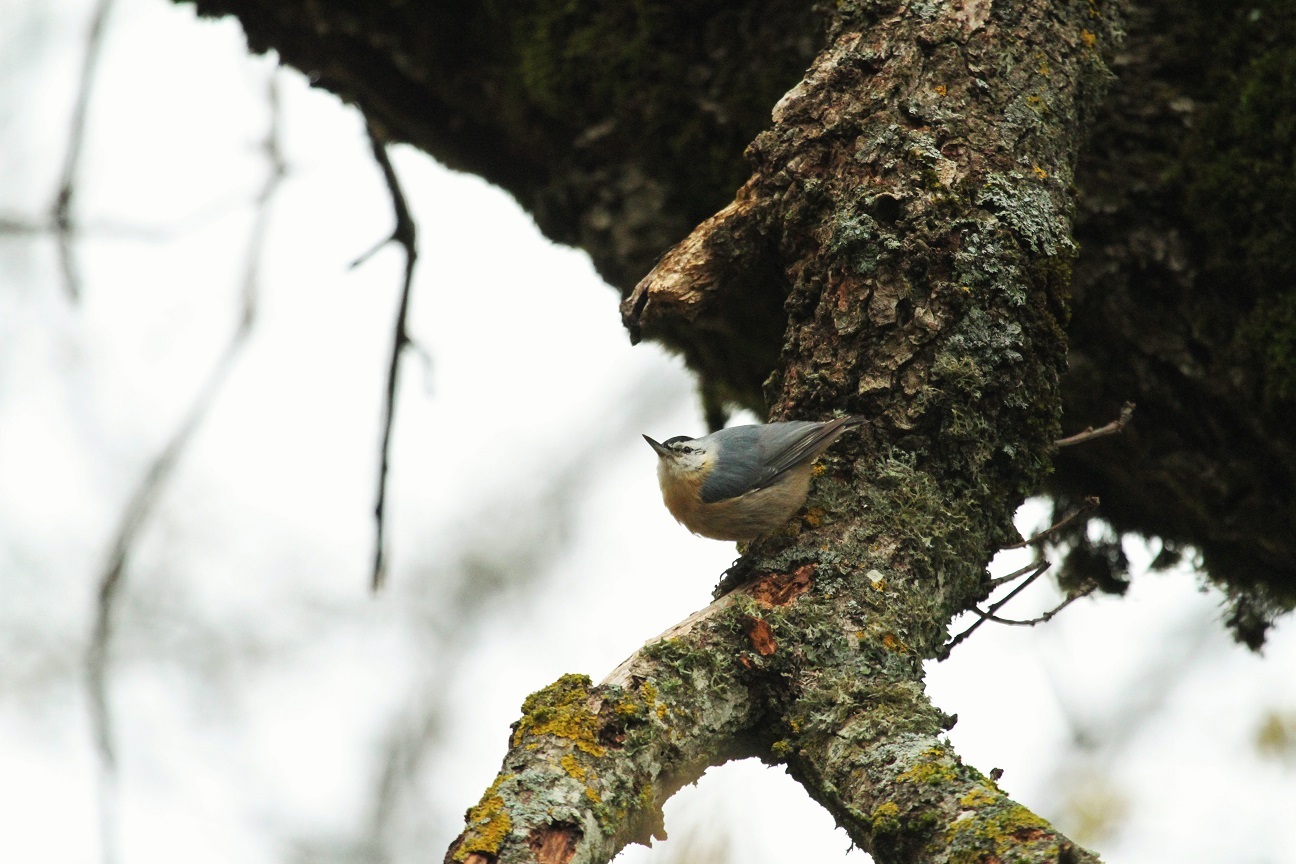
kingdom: Animalia
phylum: Chordata
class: Aves
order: Passeriformes
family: Sittidae
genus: Sitta
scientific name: Sitta ledanti
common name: Algerian nuthatch
